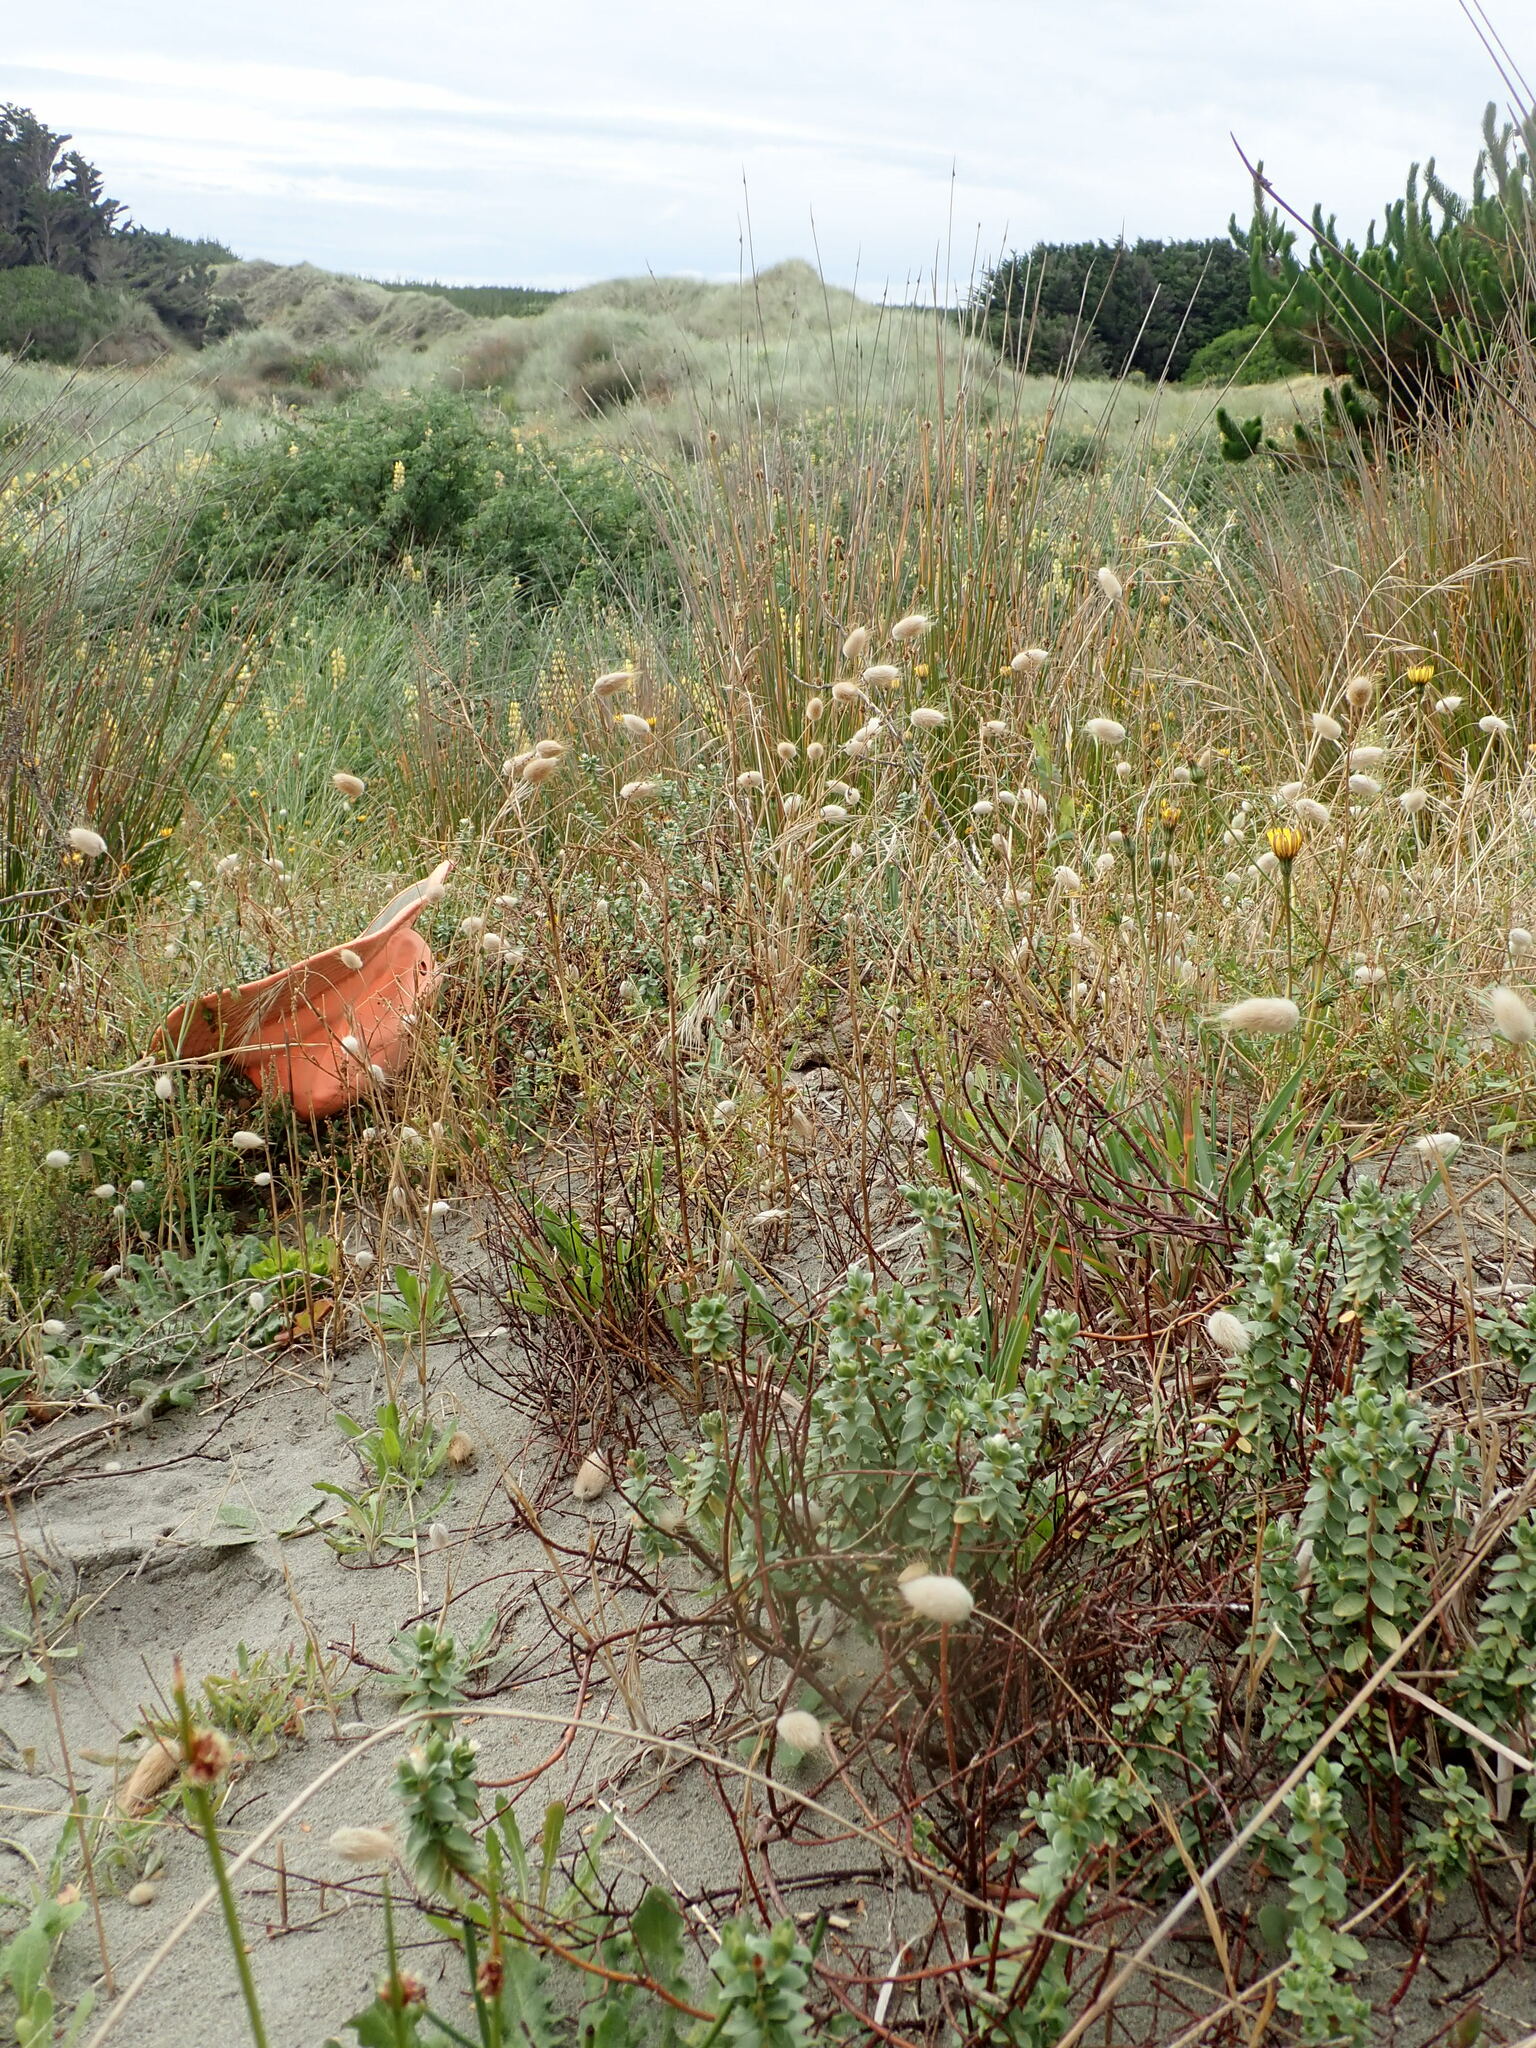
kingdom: Plantae
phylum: Tracheophyta
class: Magnoliopsida
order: Malvales
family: Thymelaeaceae
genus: Pimelea
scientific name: Pimelea villosa
